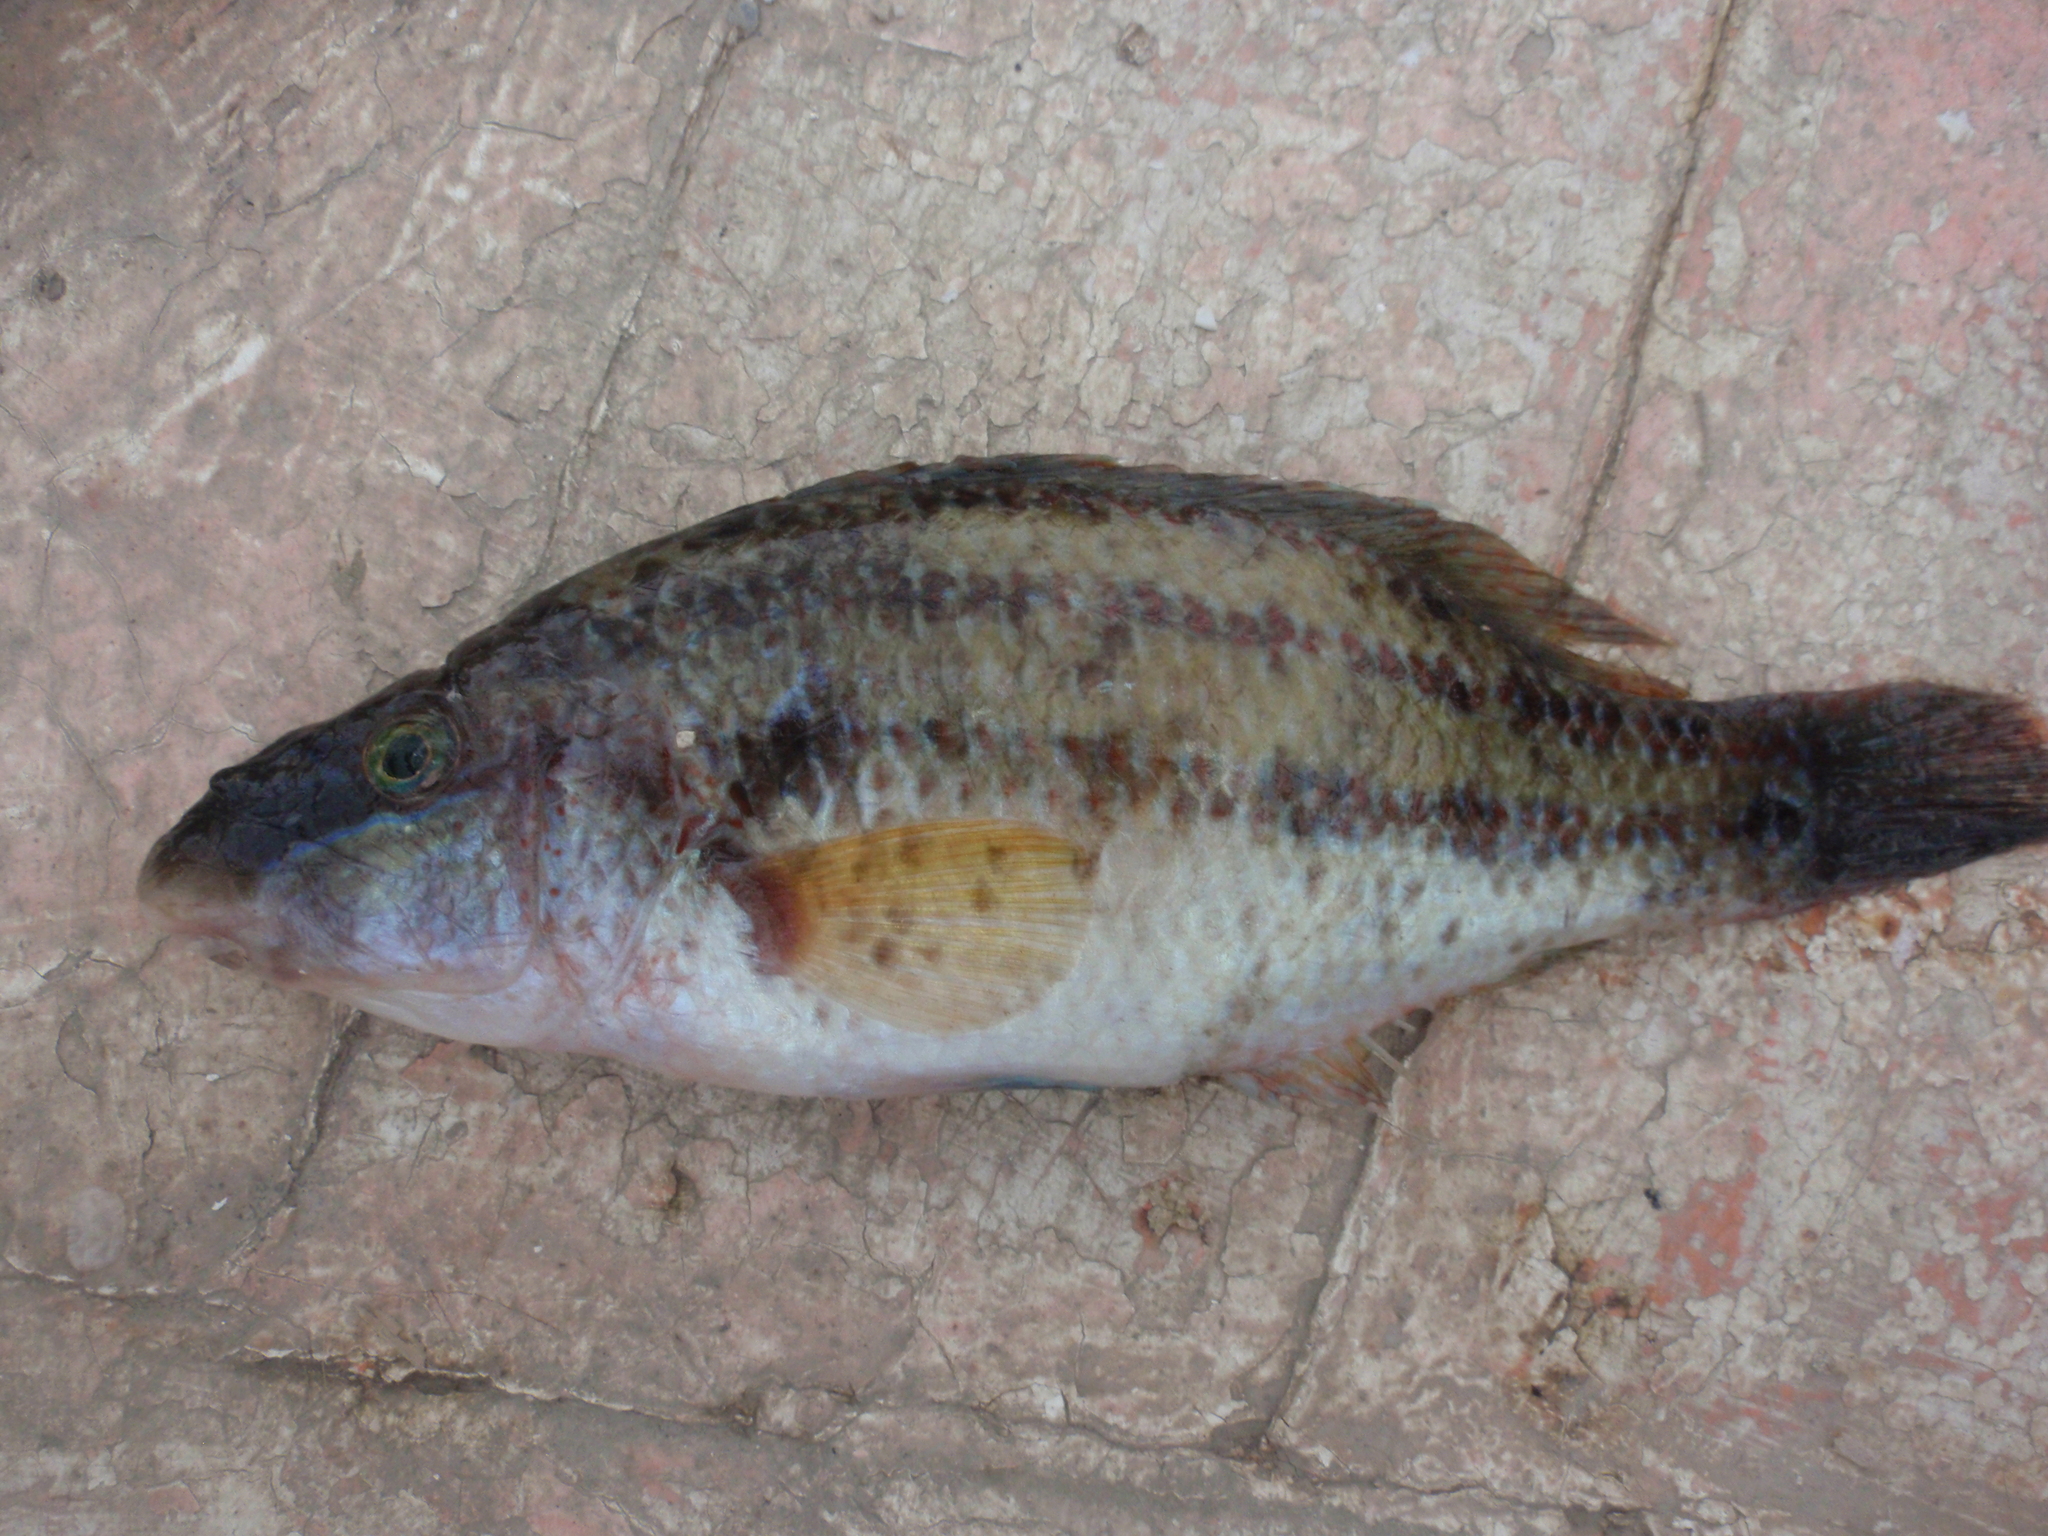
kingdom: Animalia
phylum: Chordata
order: Perciformes
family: Labridae
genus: Symphodus
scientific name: Symphodus tinca
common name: Peacock wrasse
